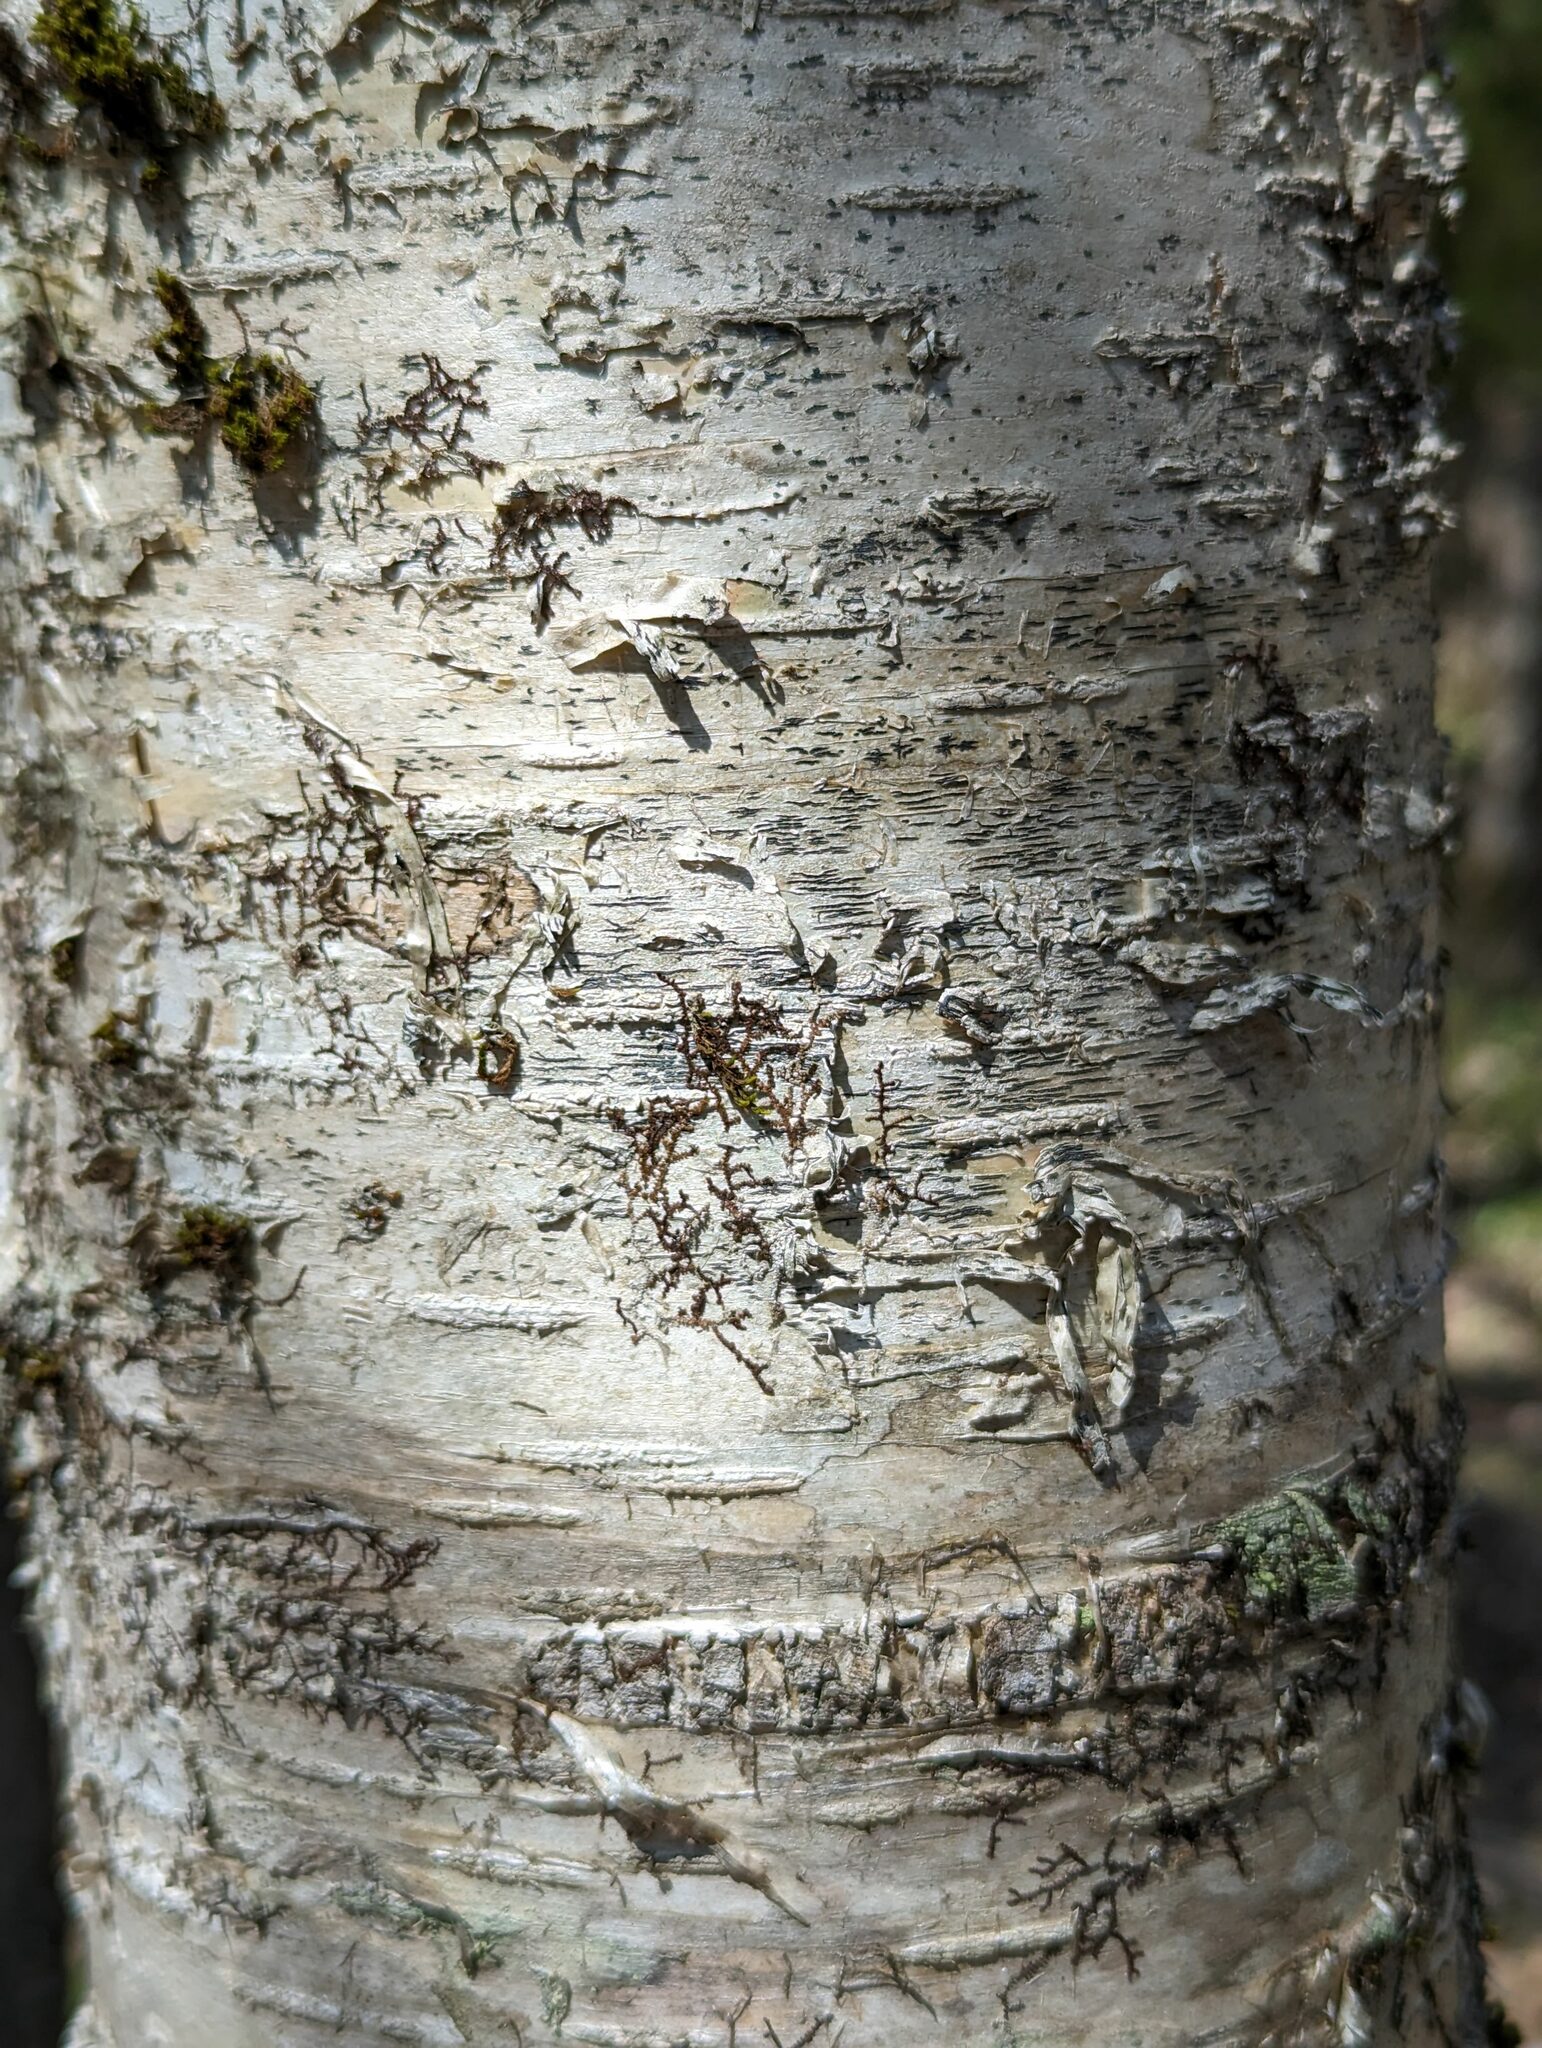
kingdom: Plantae
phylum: Marchantiophyta
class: Jungermanniopsida
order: Porellales
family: Frullaniaceae
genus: Frullania
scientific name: Frullania eboracensis
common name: New york scalewort
